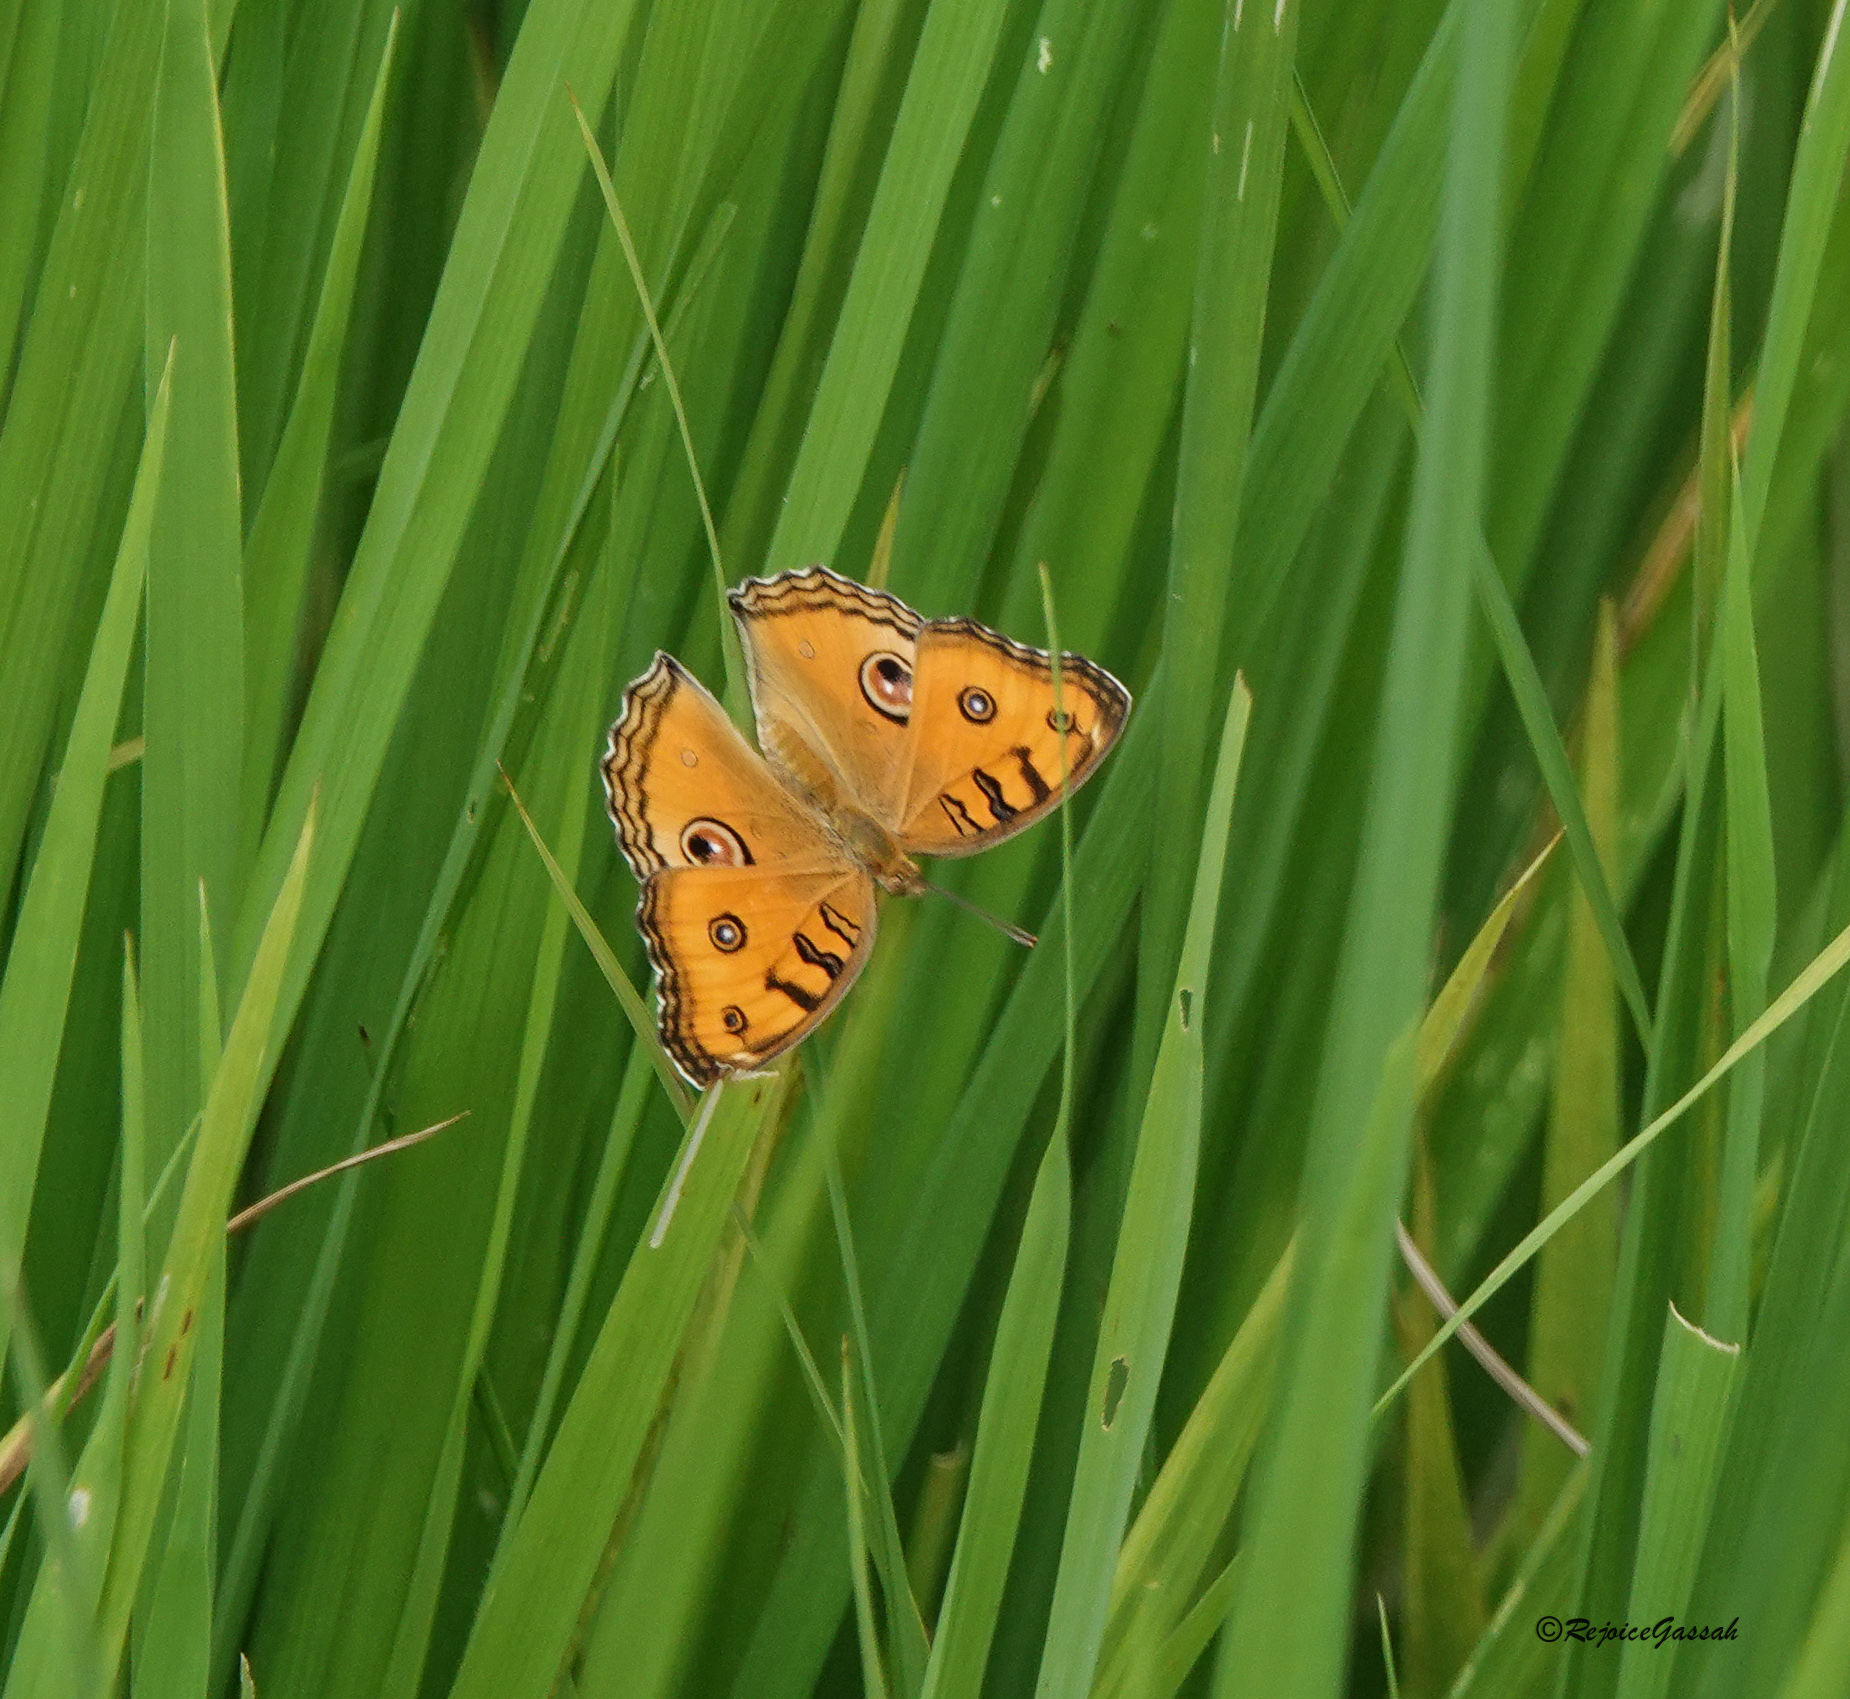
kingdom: Animalia
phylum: Arthropoda
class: Insecta
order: Lepidoptera
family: Nymphalidae
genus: Junonia
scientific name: Junonia almana
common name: Peacock pansy
